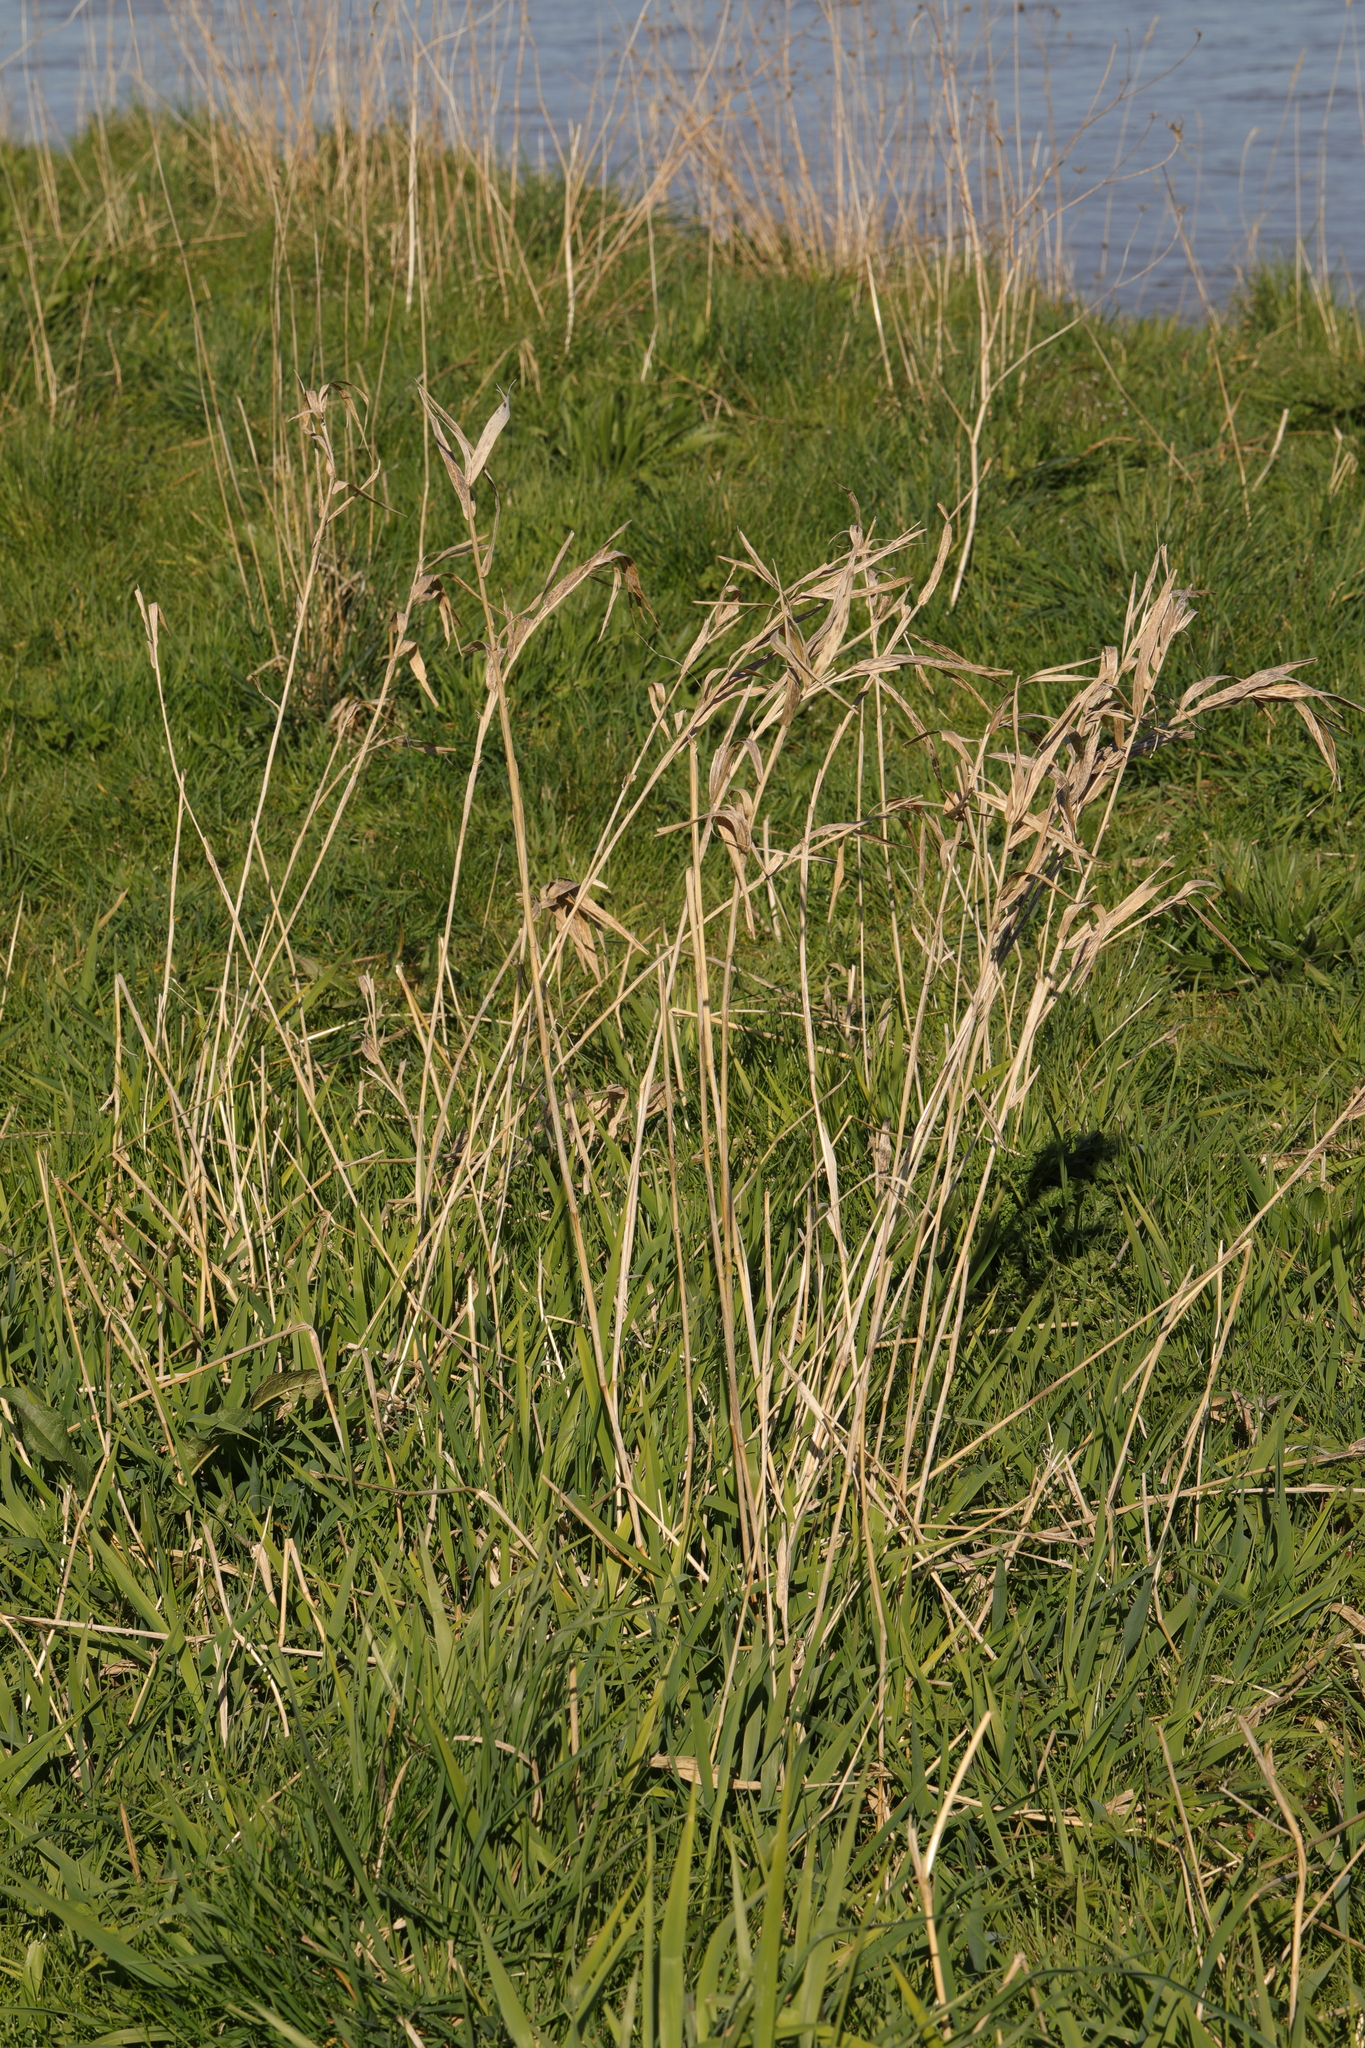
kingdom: Plantae
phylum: Tracheophyta
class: Liliopsida
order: Poales
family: Poaceae
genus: Dactylis
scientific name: Dactylis glomerata
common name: Orchardgrass
